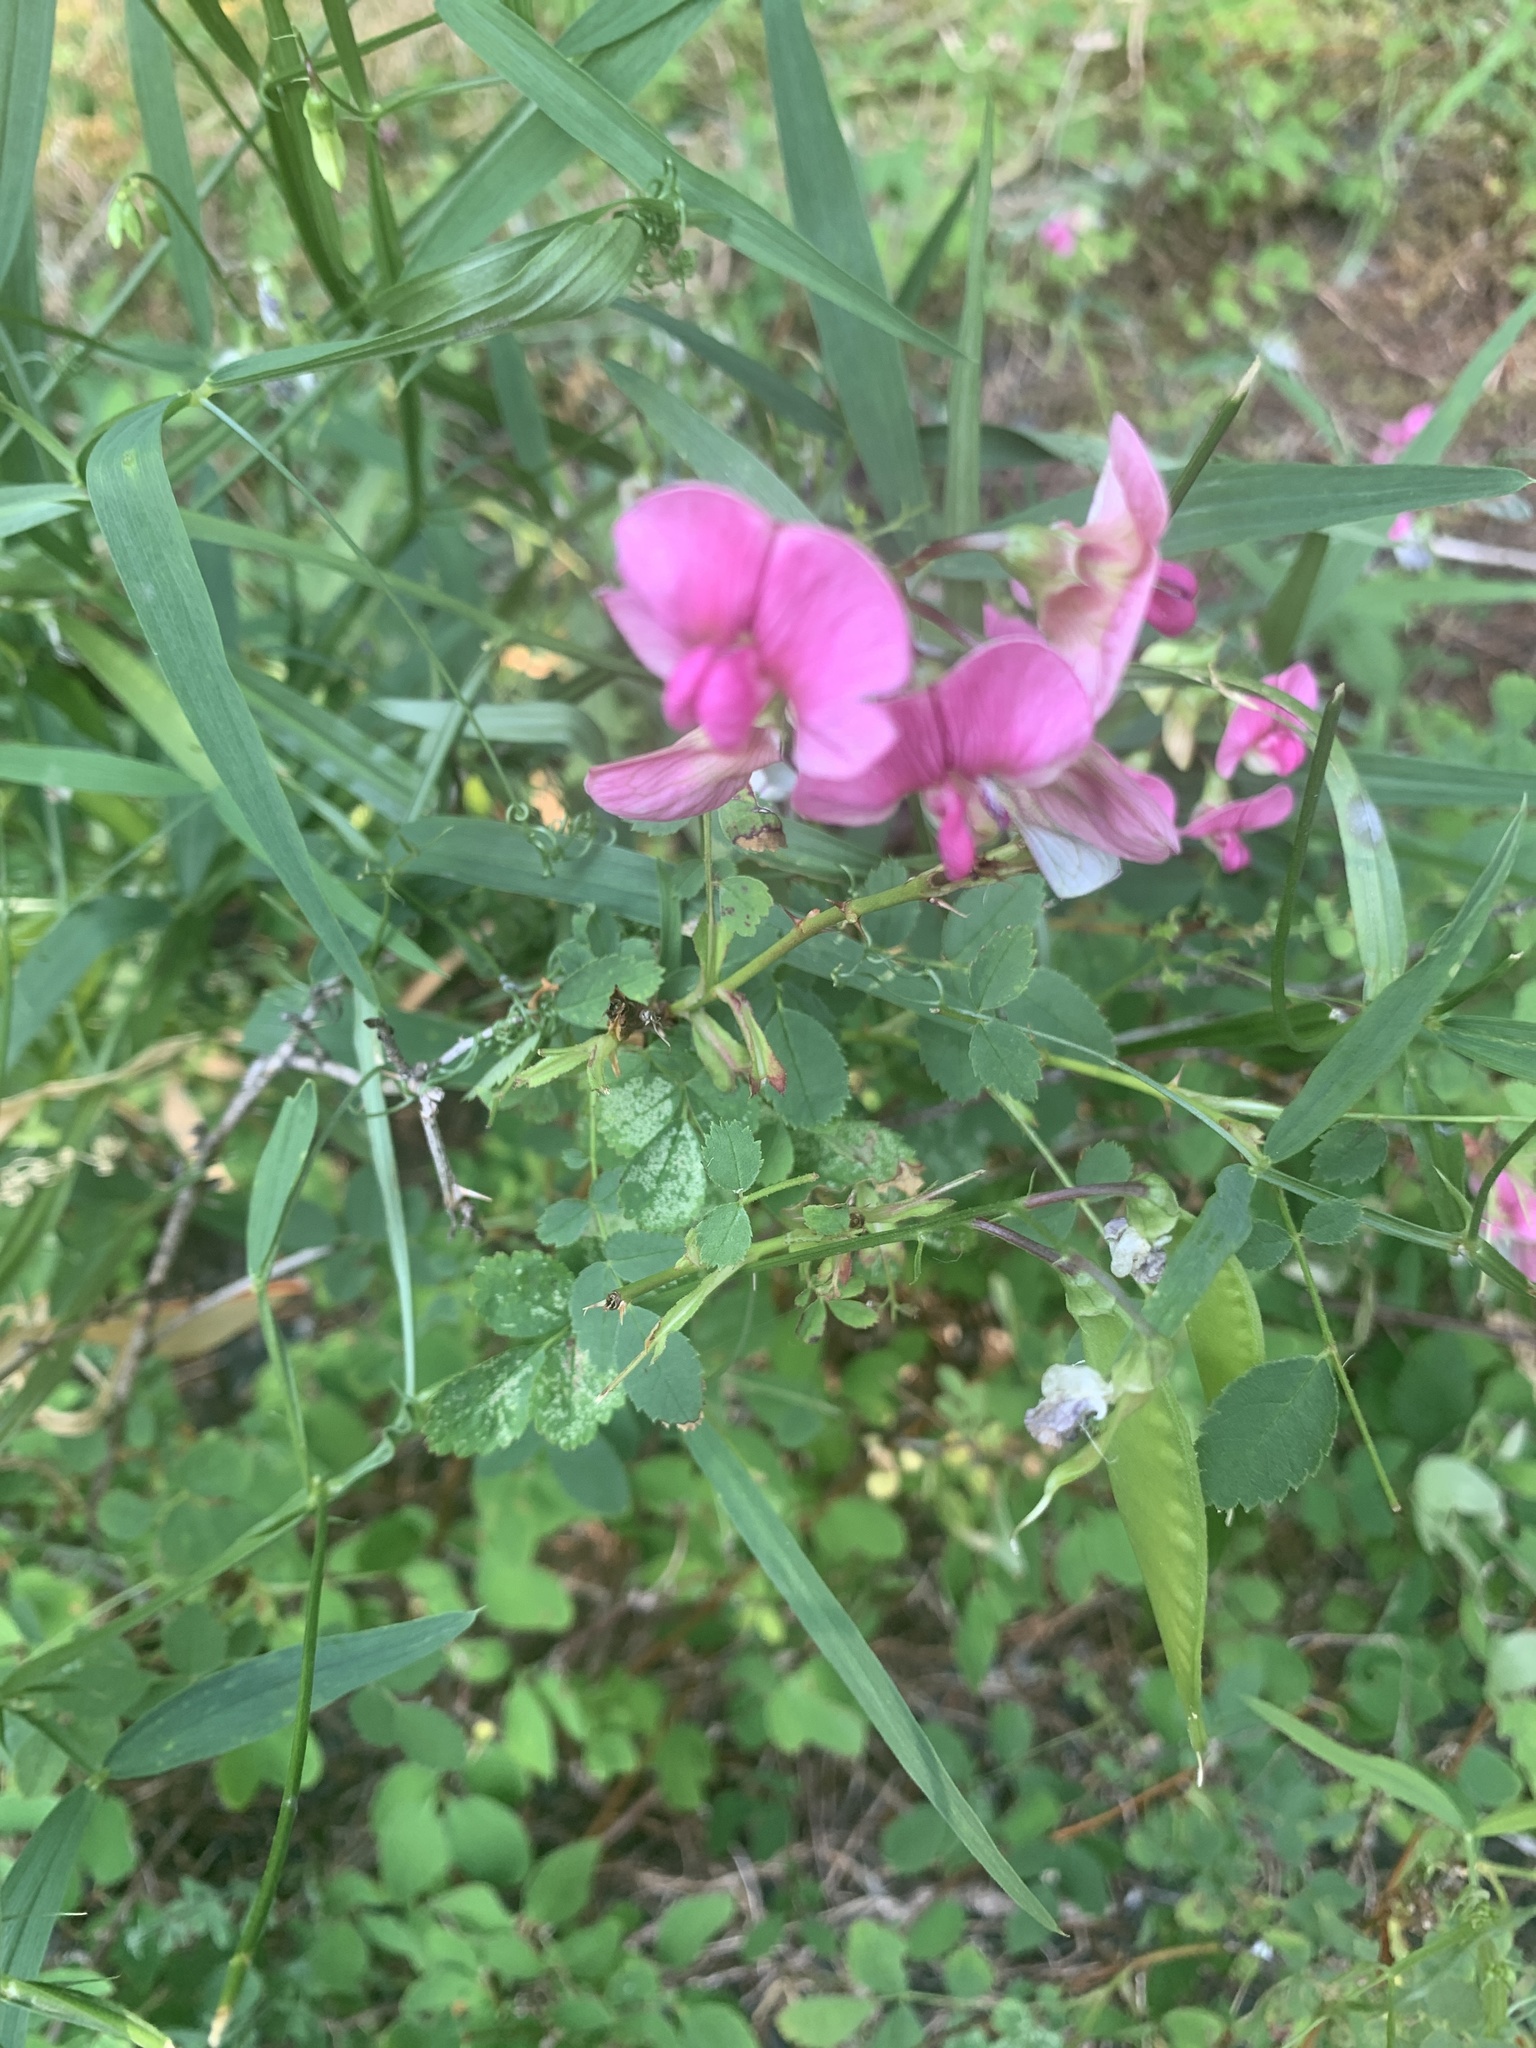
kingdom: Plantae
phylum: Tracheophyta
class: Magnoliopsida
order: Fabales
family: Fabaceae
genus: Lathyrus
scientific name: Lathyrus sylvestris
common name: Flat pea
